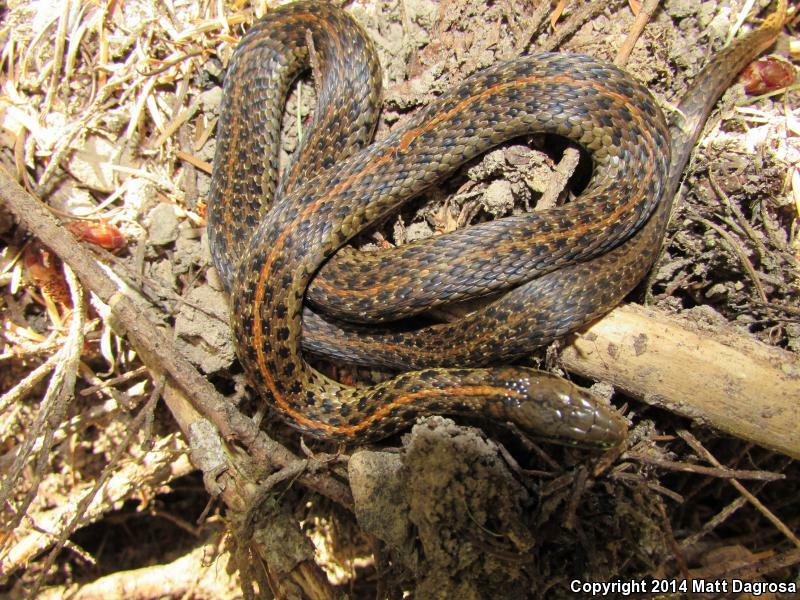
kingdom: Animalia
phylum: Chordata
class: Squamata
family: Colubridae
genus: Thamnophis
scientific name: Thamnophis ordinoides
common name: Northwestern garter snake
